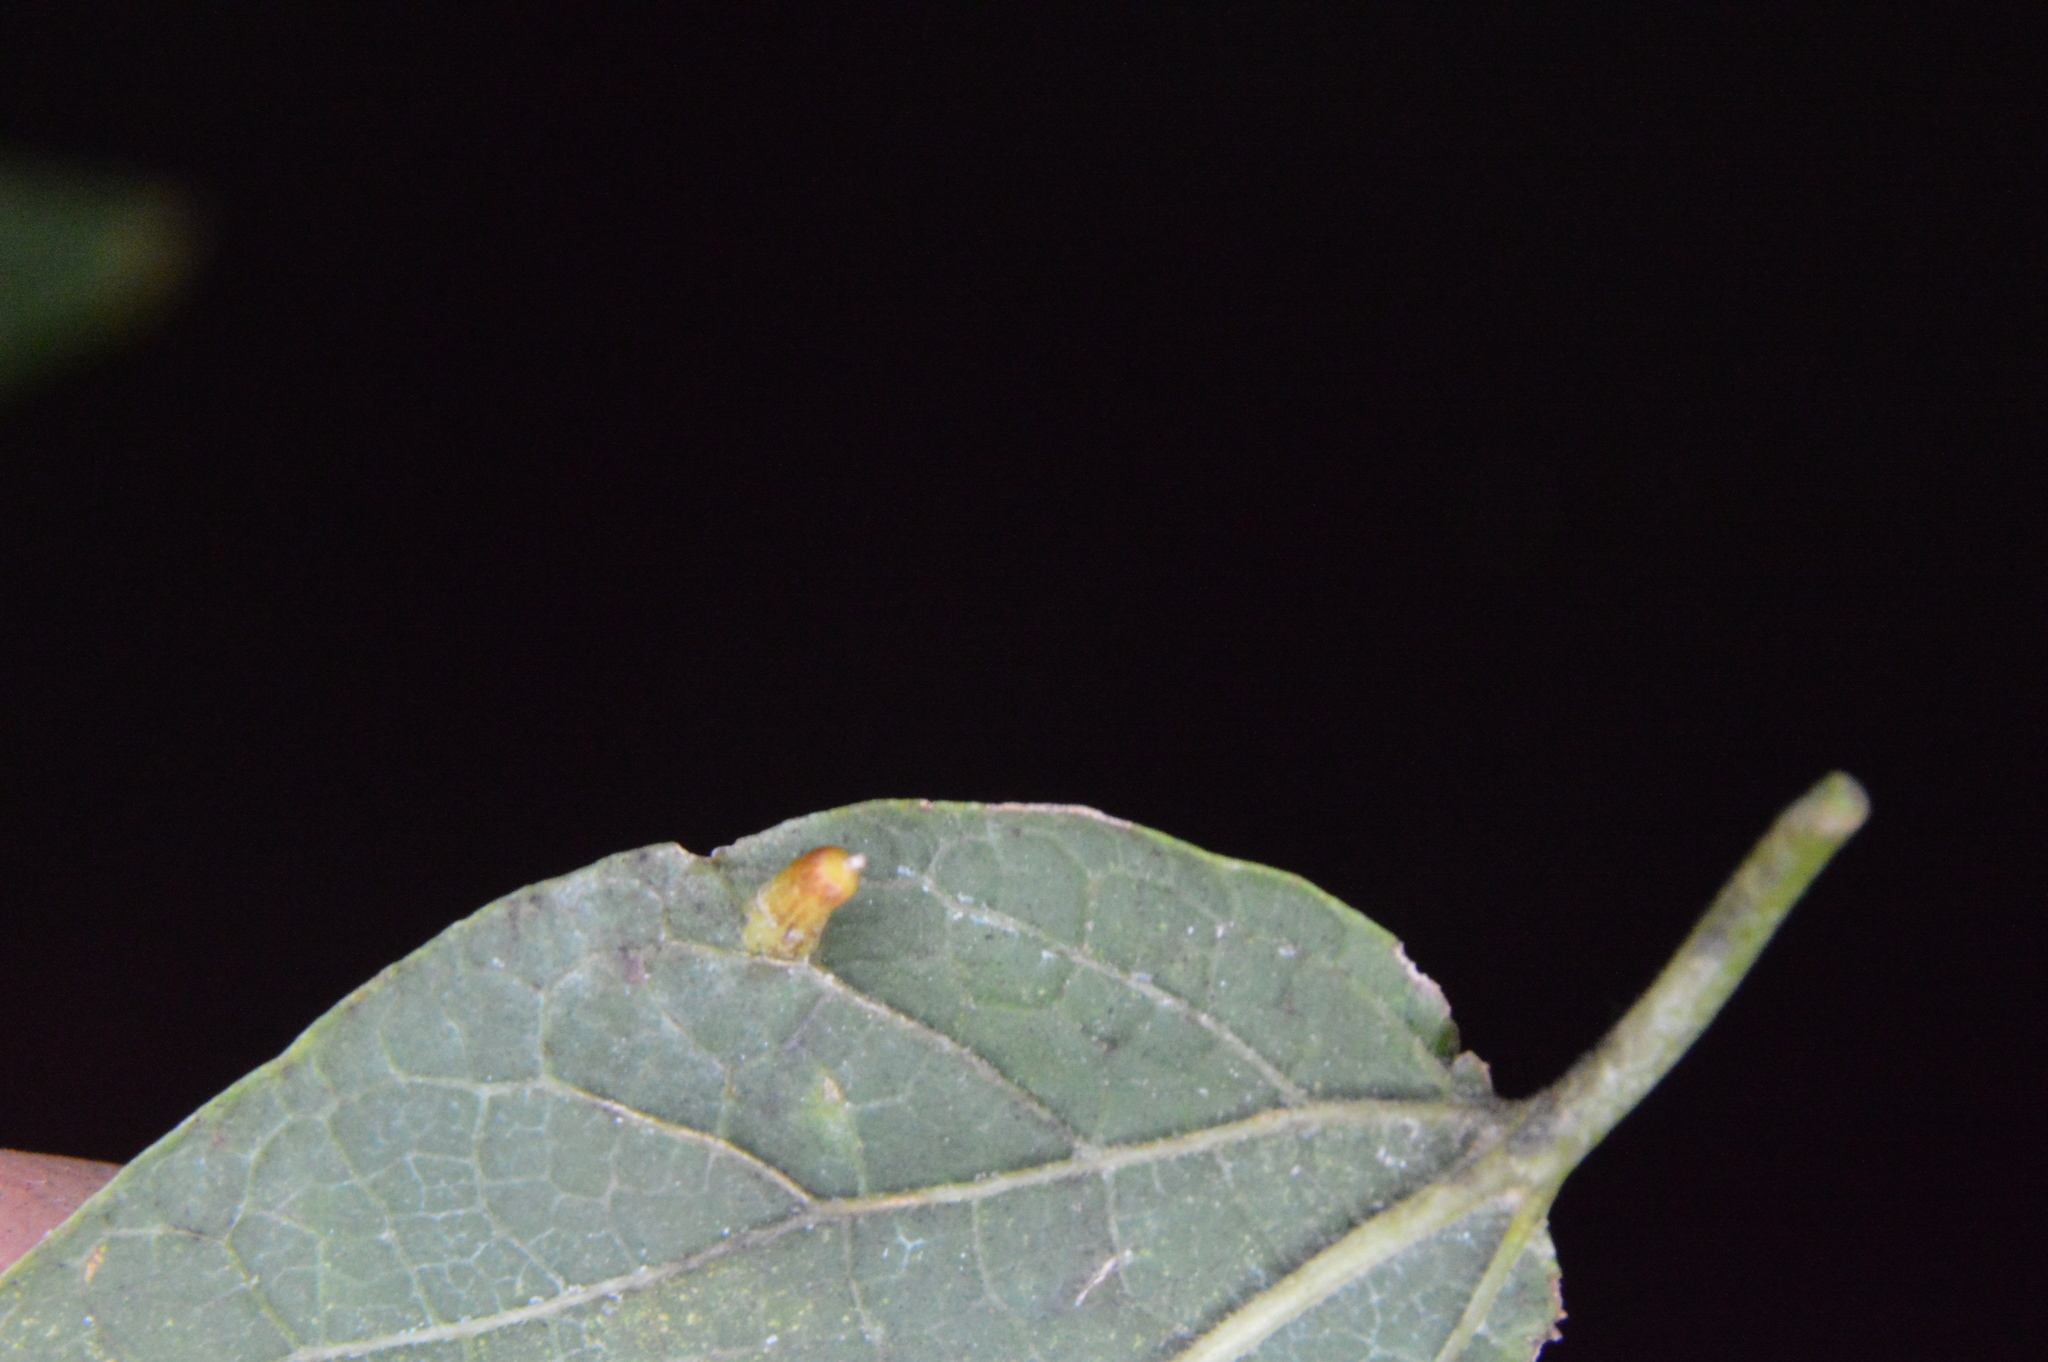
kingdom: Animalia
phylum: Arthropoda
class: Insecta
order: Diptera
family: Cecidomyiidae
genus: Celticecis
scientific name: Celticecis aciculata
